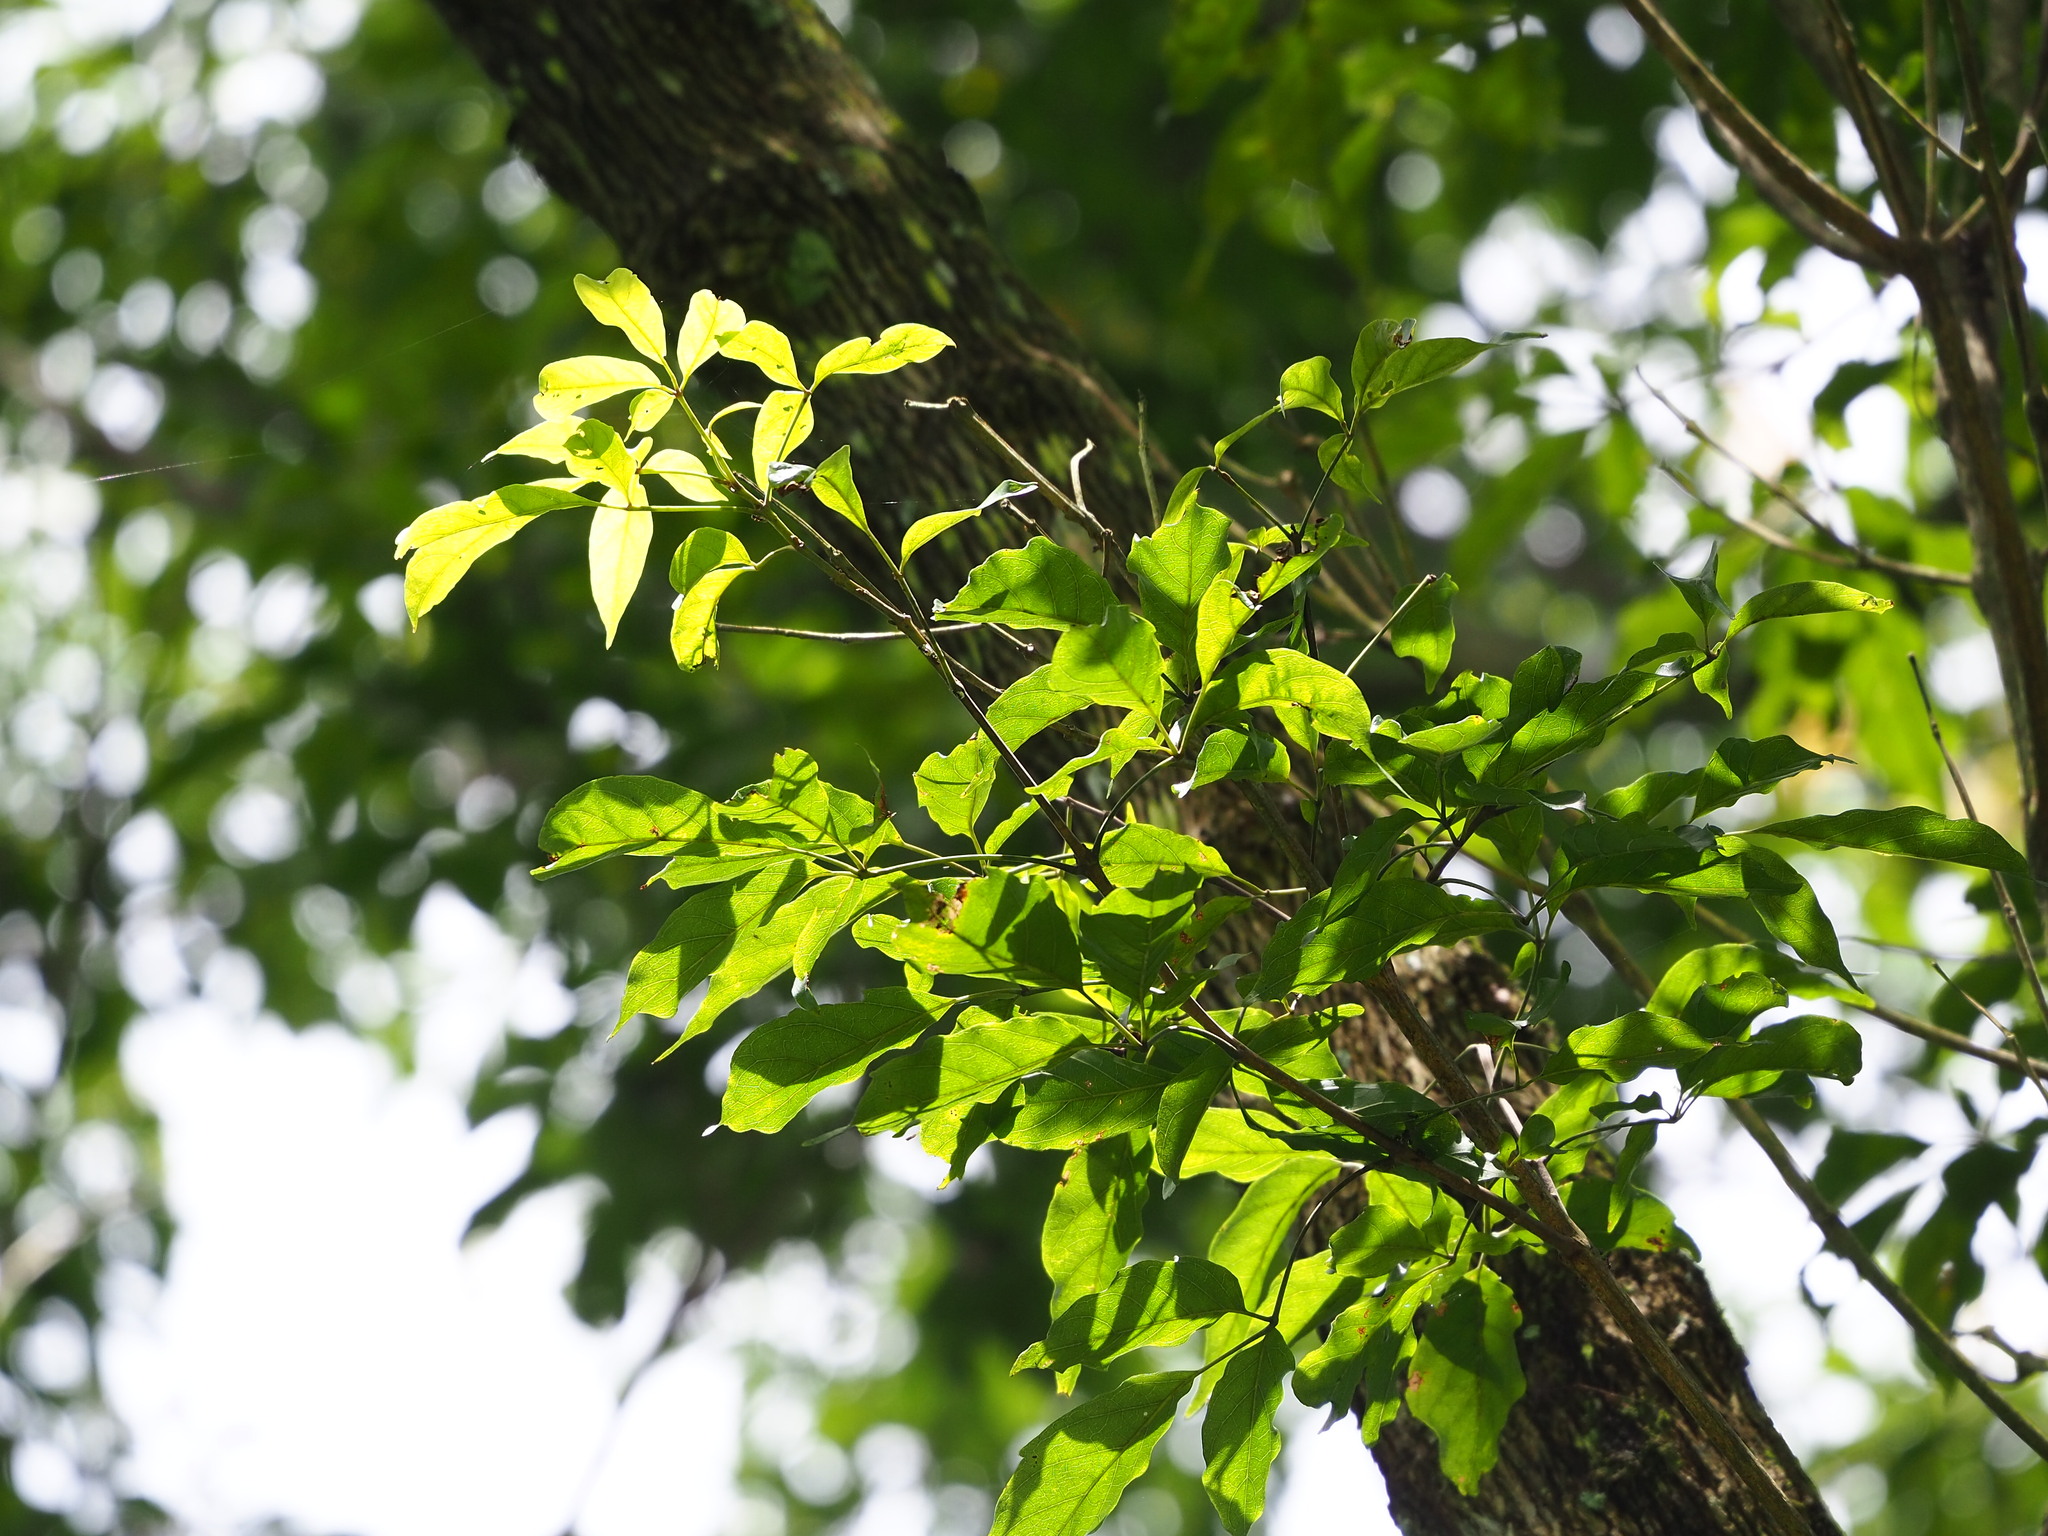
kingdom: Plantae
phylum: Tracheophyta
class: Magnoliopsida
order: Lamiales
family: Lamiaceae
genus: Vitex
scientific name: Vitex quinata
